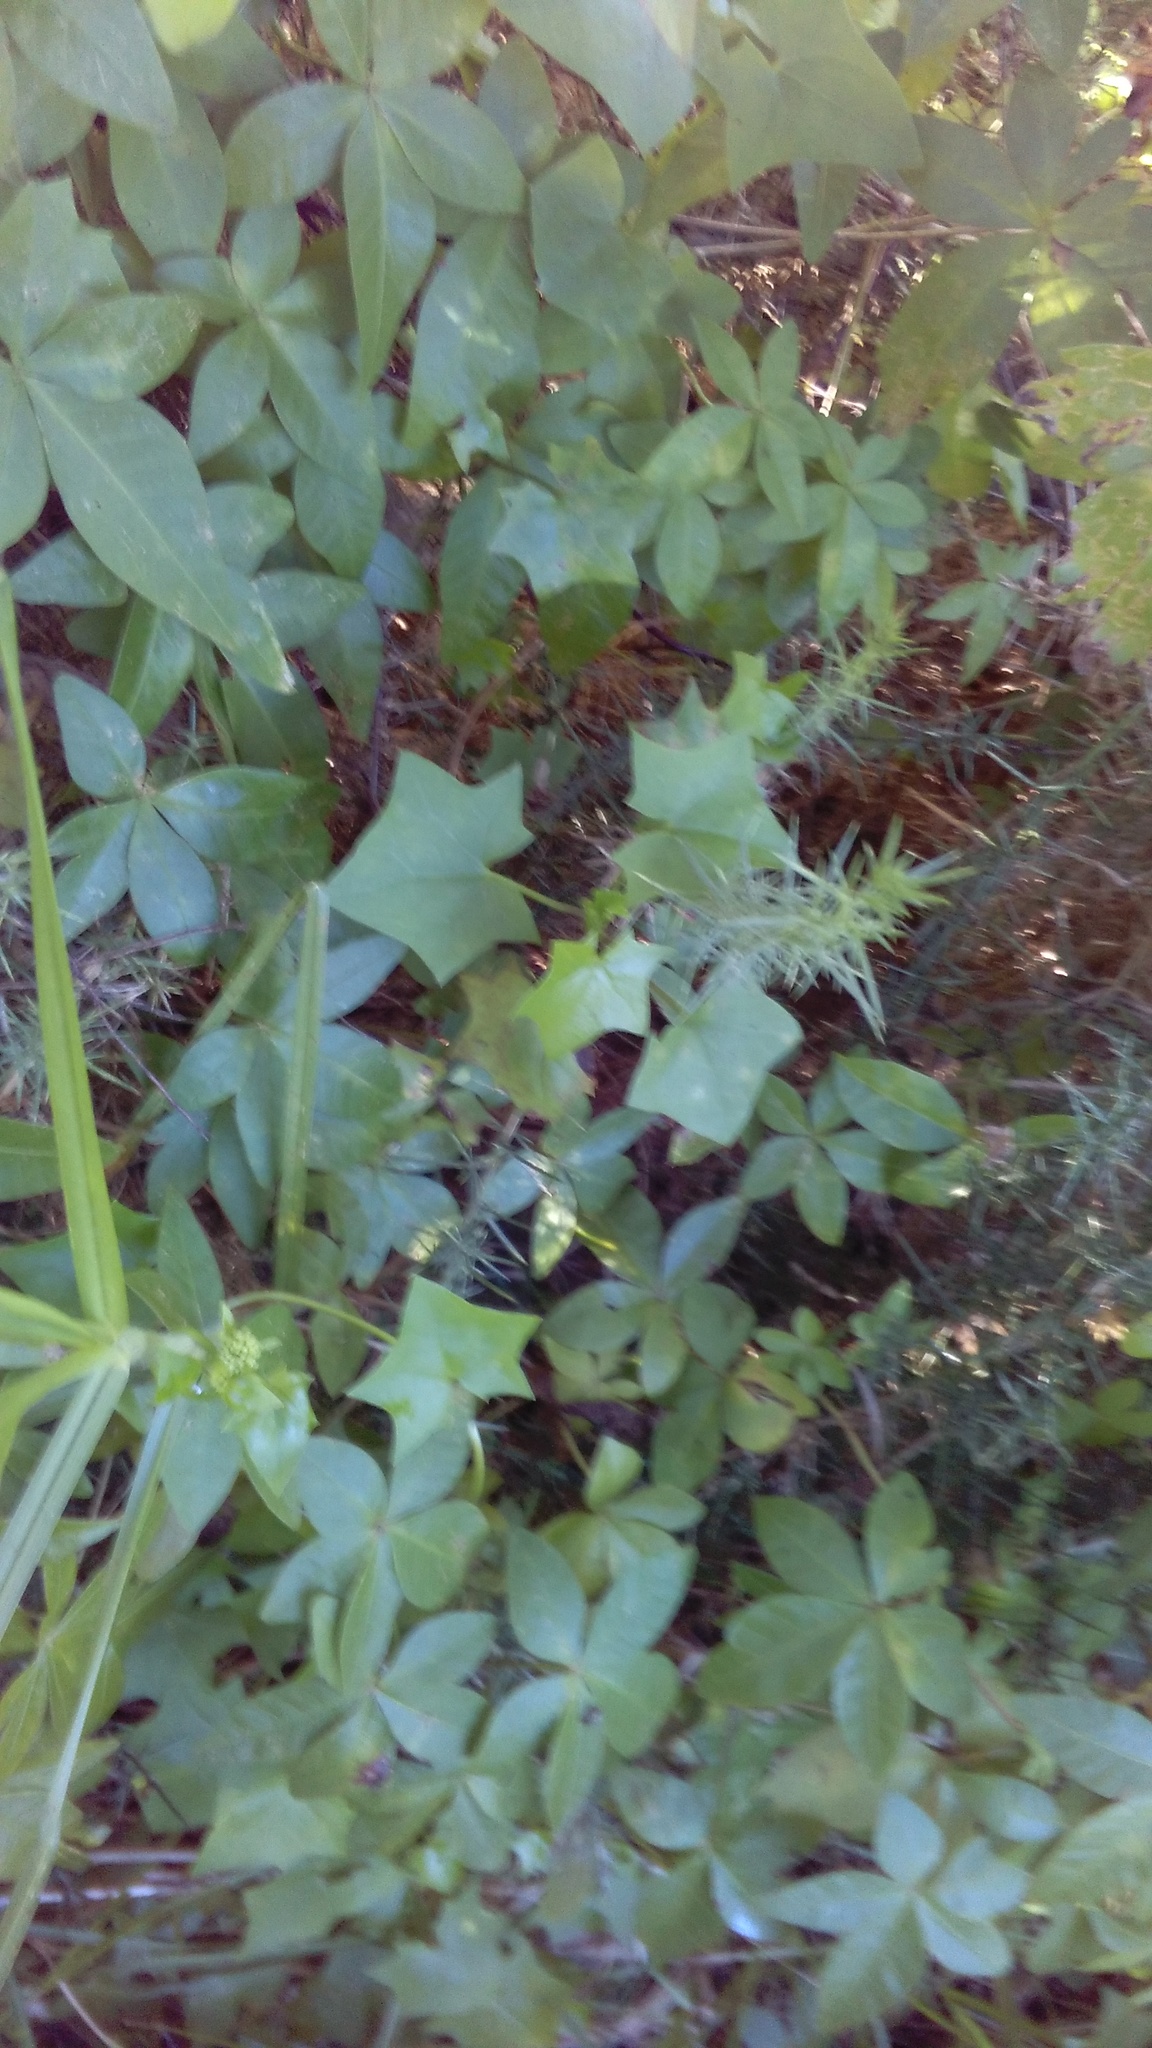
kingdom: Plantae
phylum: Tracheophyta
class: Magnoliopsida
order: Asterales
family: Asteraceae
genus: Delairea
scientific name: Delairea odorata
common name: Cape-ivy
